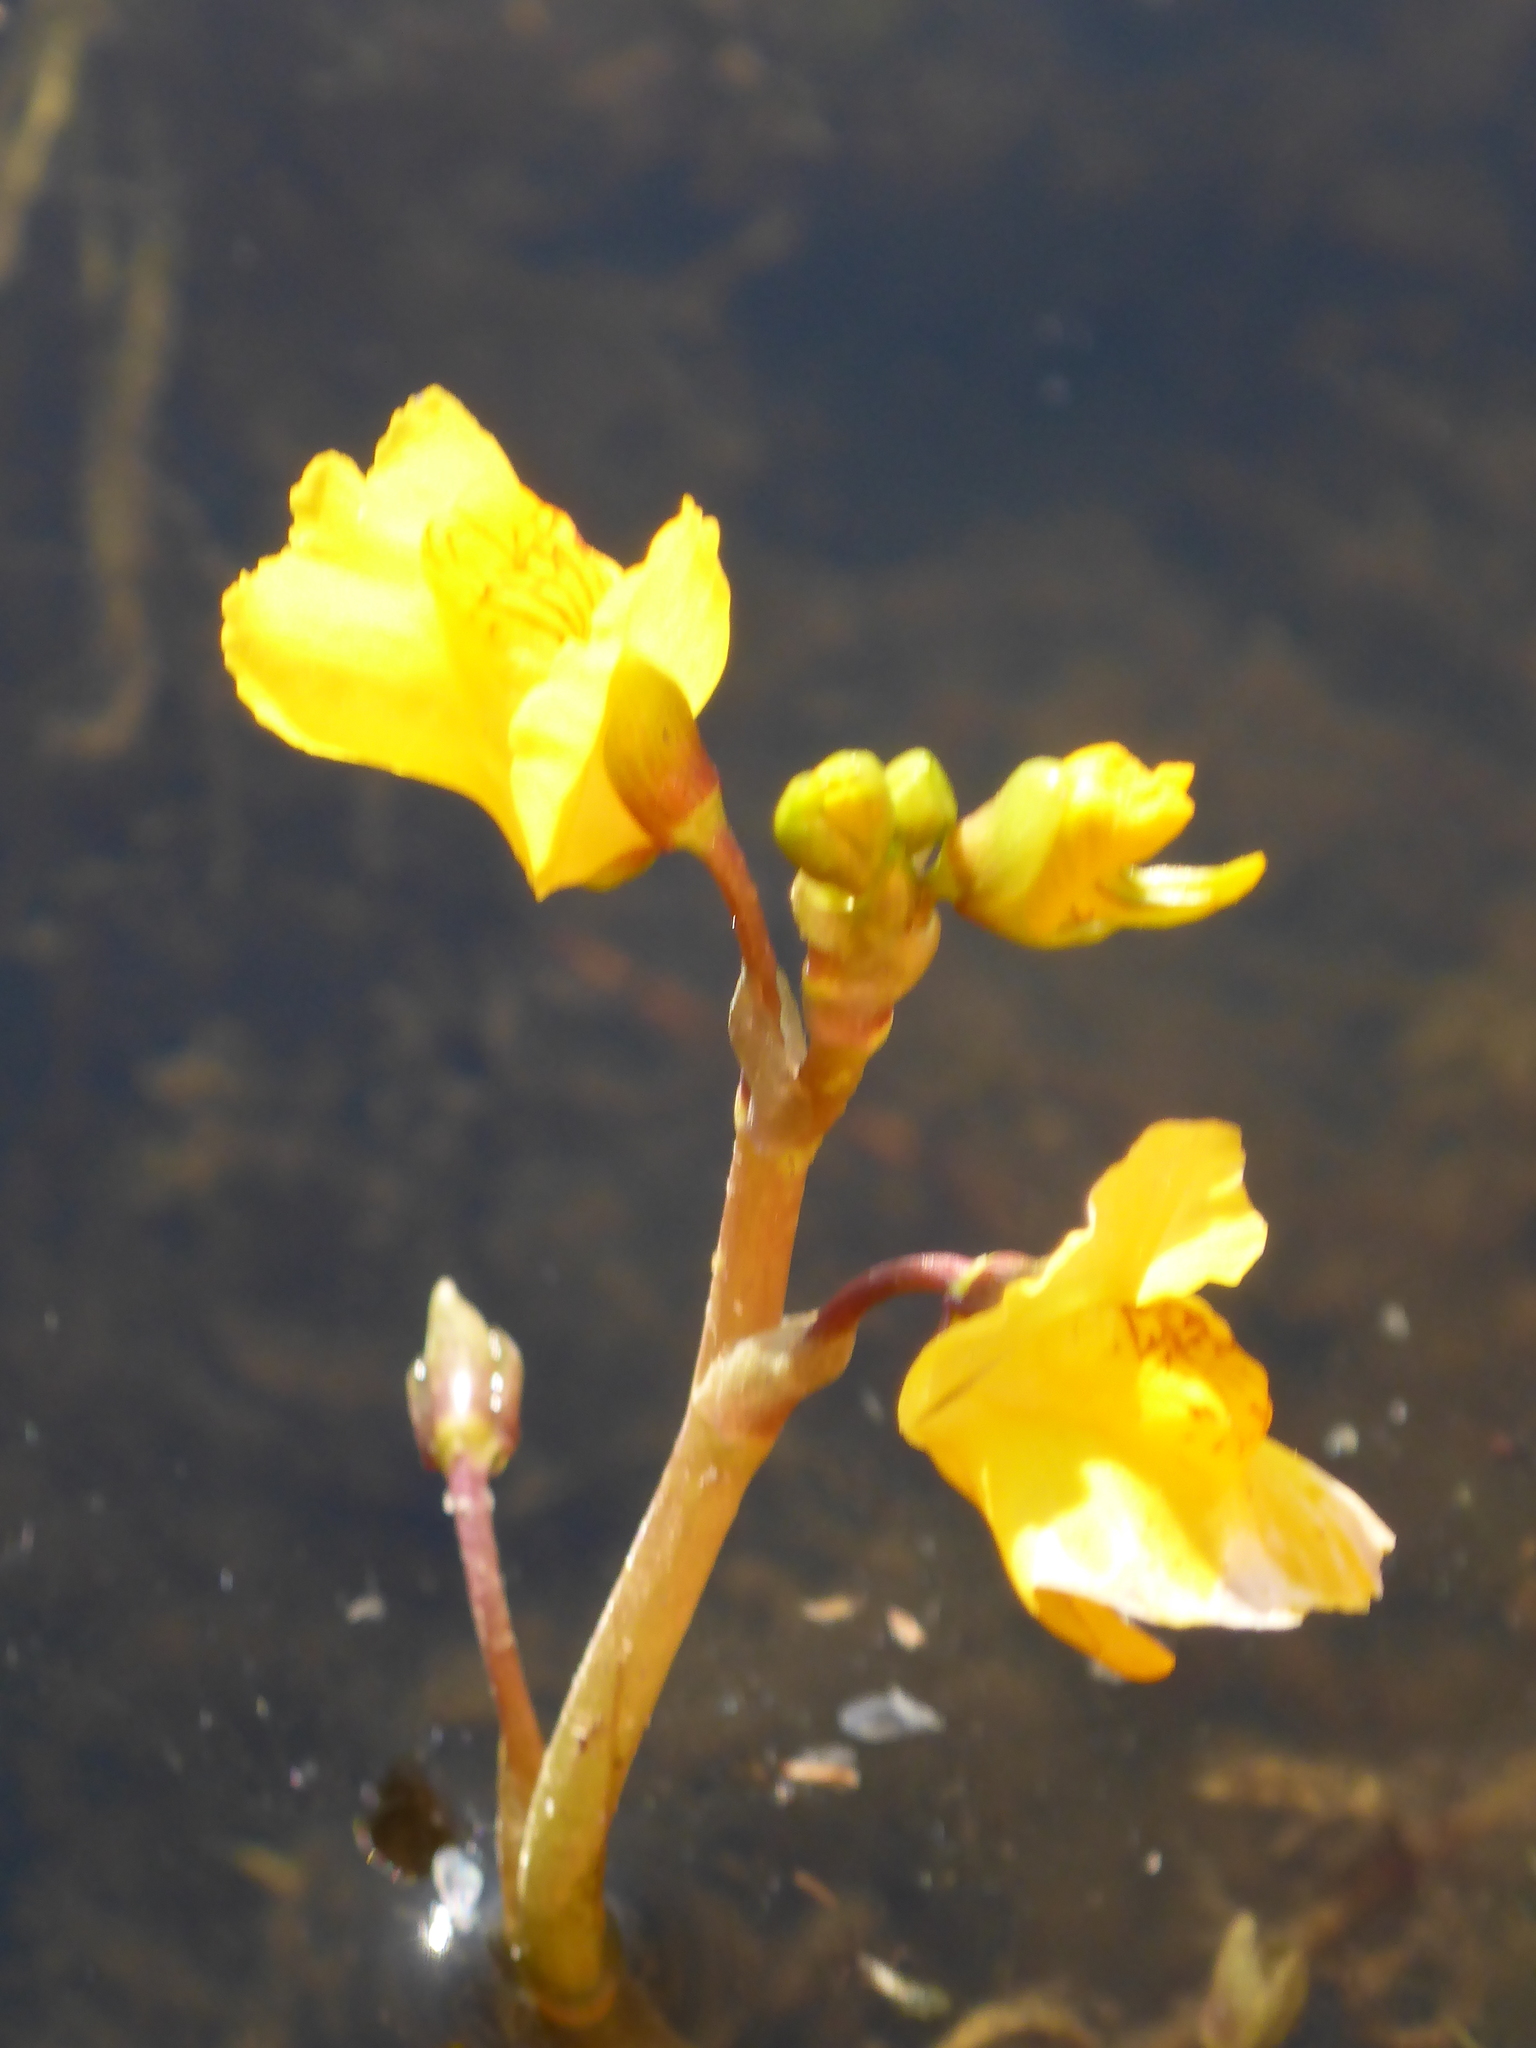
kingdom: Plantae
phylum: Tracheophyta
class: Magnoliopsida
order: Lamiales
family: Lentibulariaceae
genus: Utricularia
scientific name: Utricularia macrorhiza
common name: Common bladderwort
